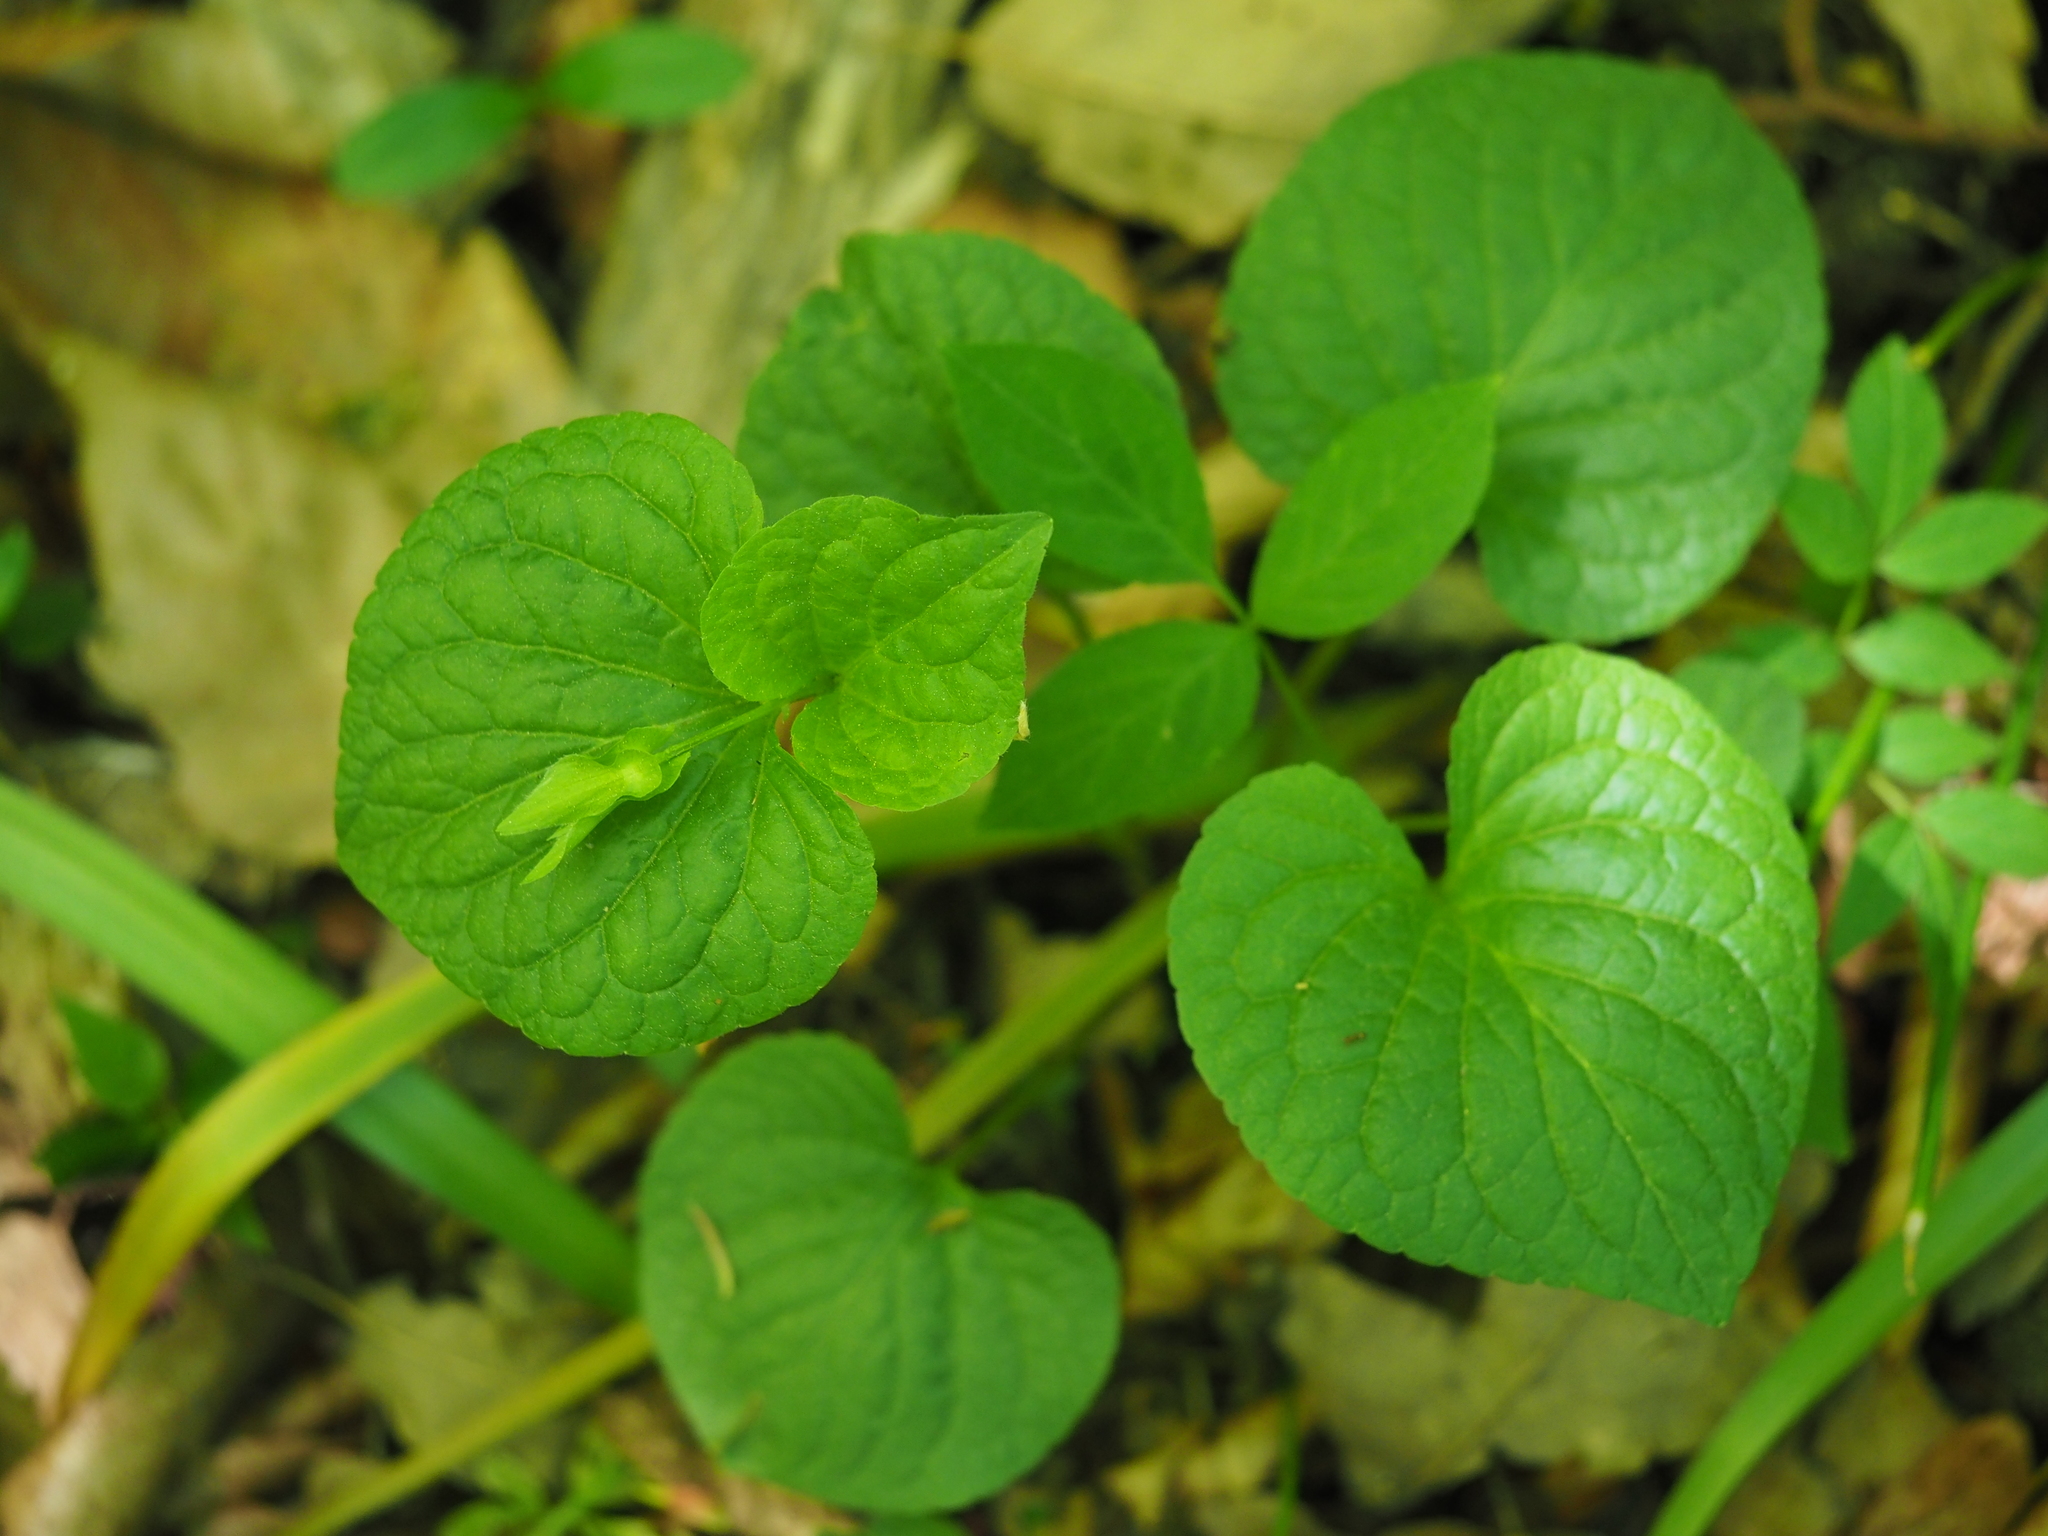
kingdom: Plantae
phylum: Tracheophyta
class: Magnoliopsida
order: Malpighiales
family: Violaceae
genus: Viola
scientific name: Viola mirabilis
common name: Wonder violet
